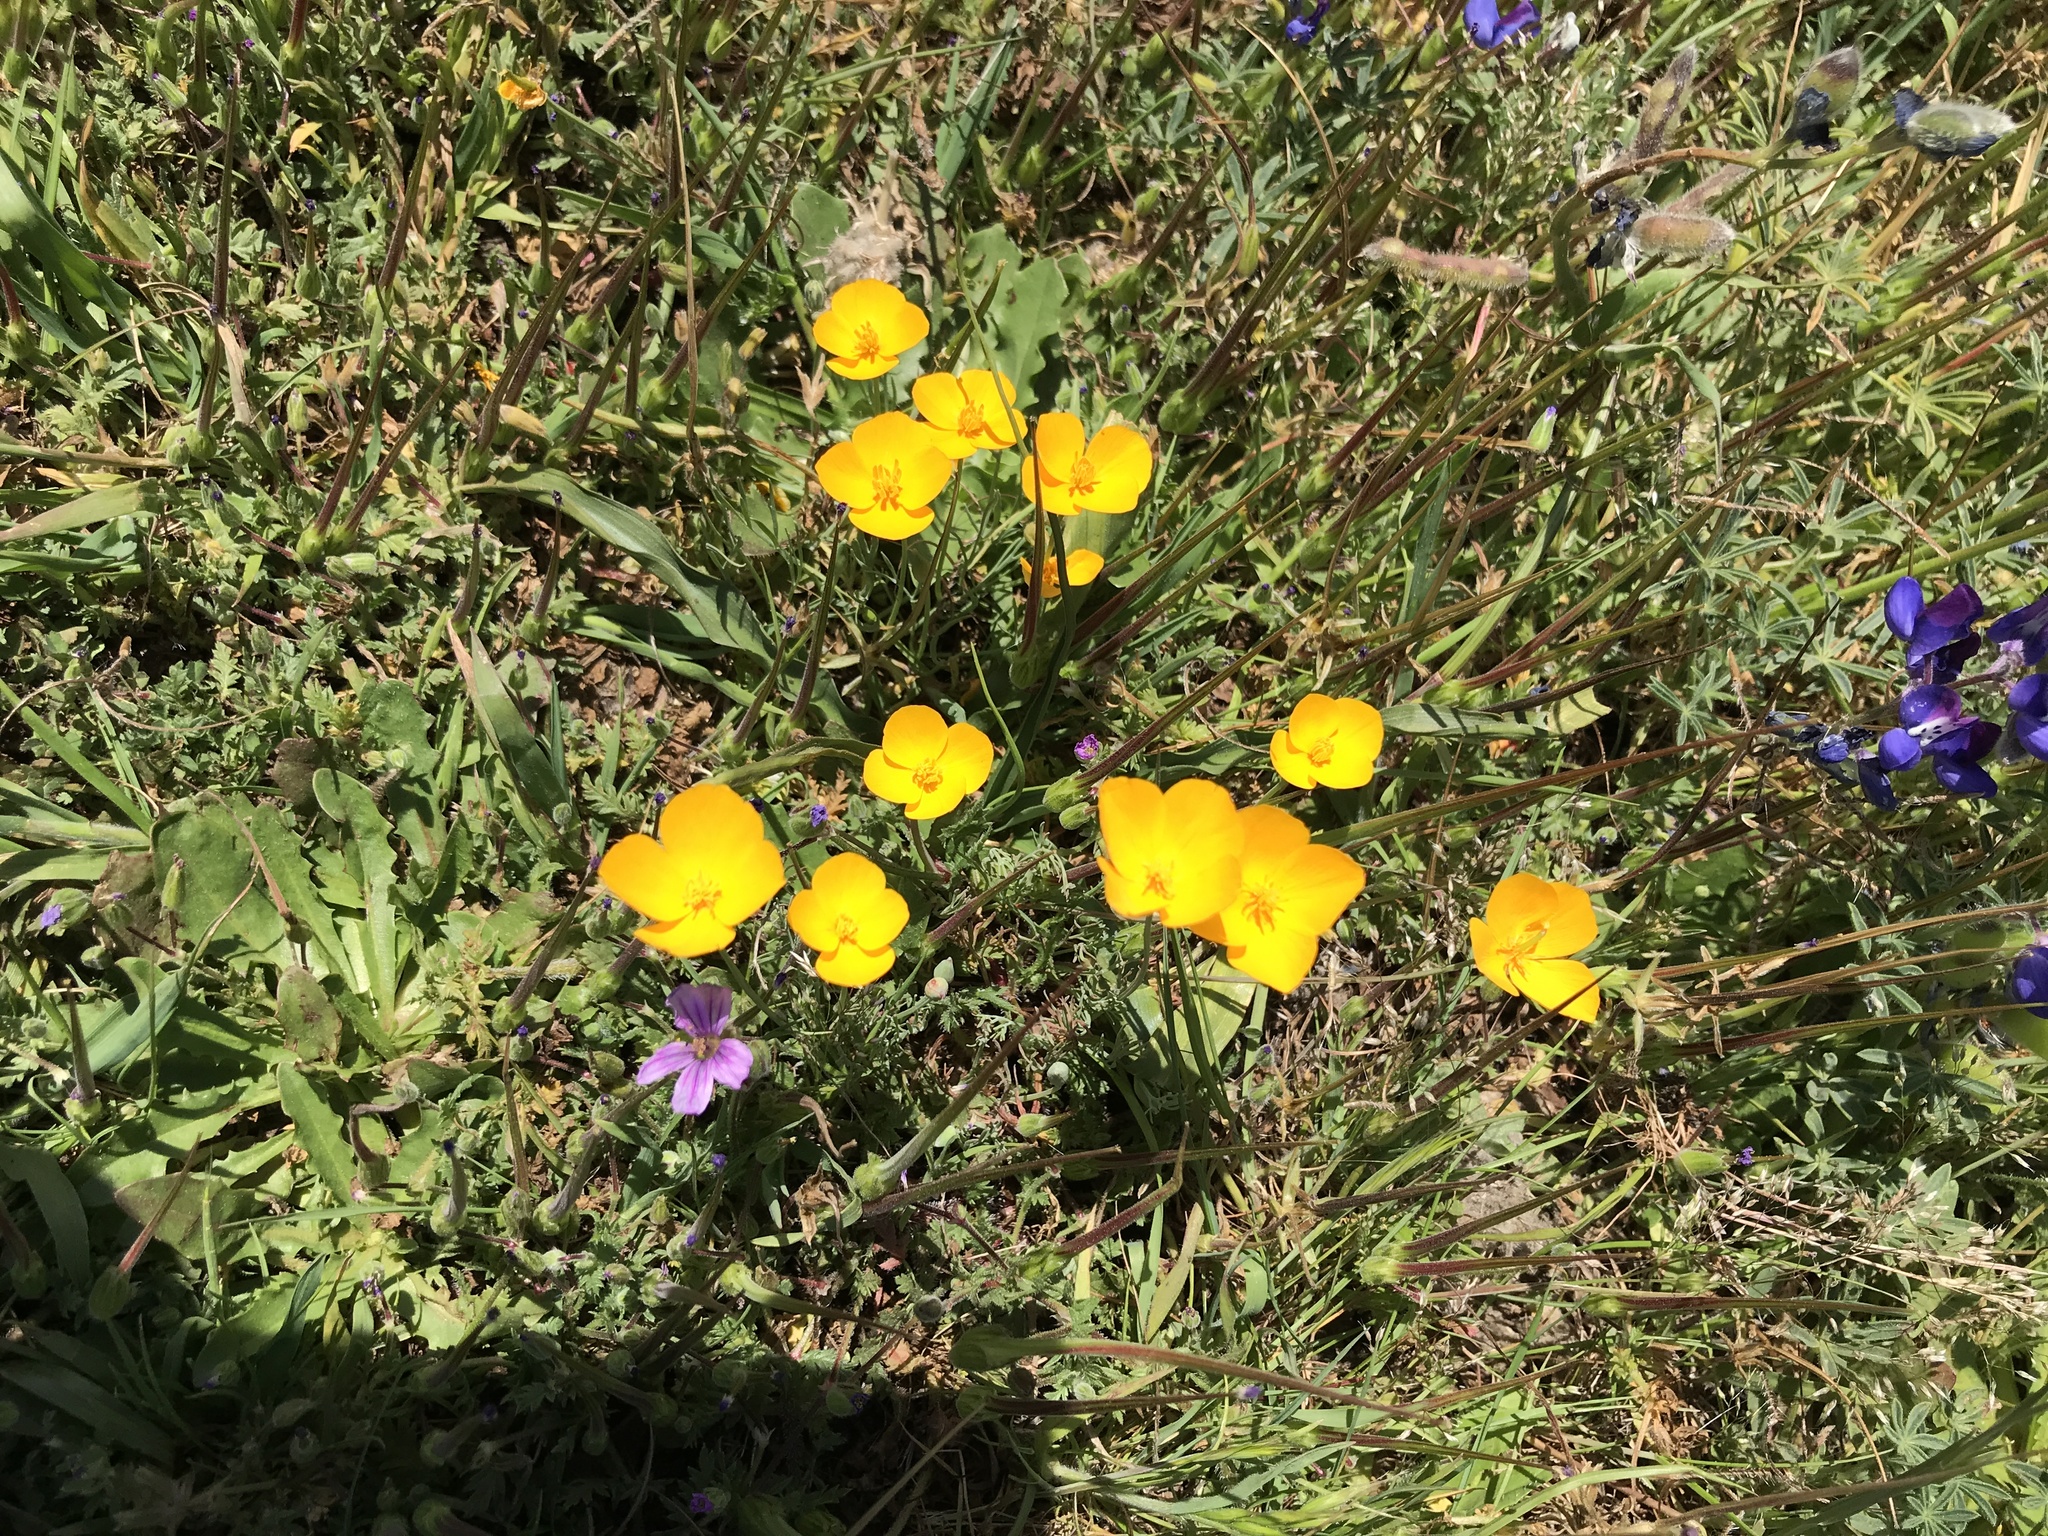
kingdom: Plantae
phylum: Tracheophyta
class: Magnoliopsida
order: Ranunculales
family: Papaveraceae
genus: Eschscholzia
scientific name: Eschscholzia lobbii
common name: Frying-pans
